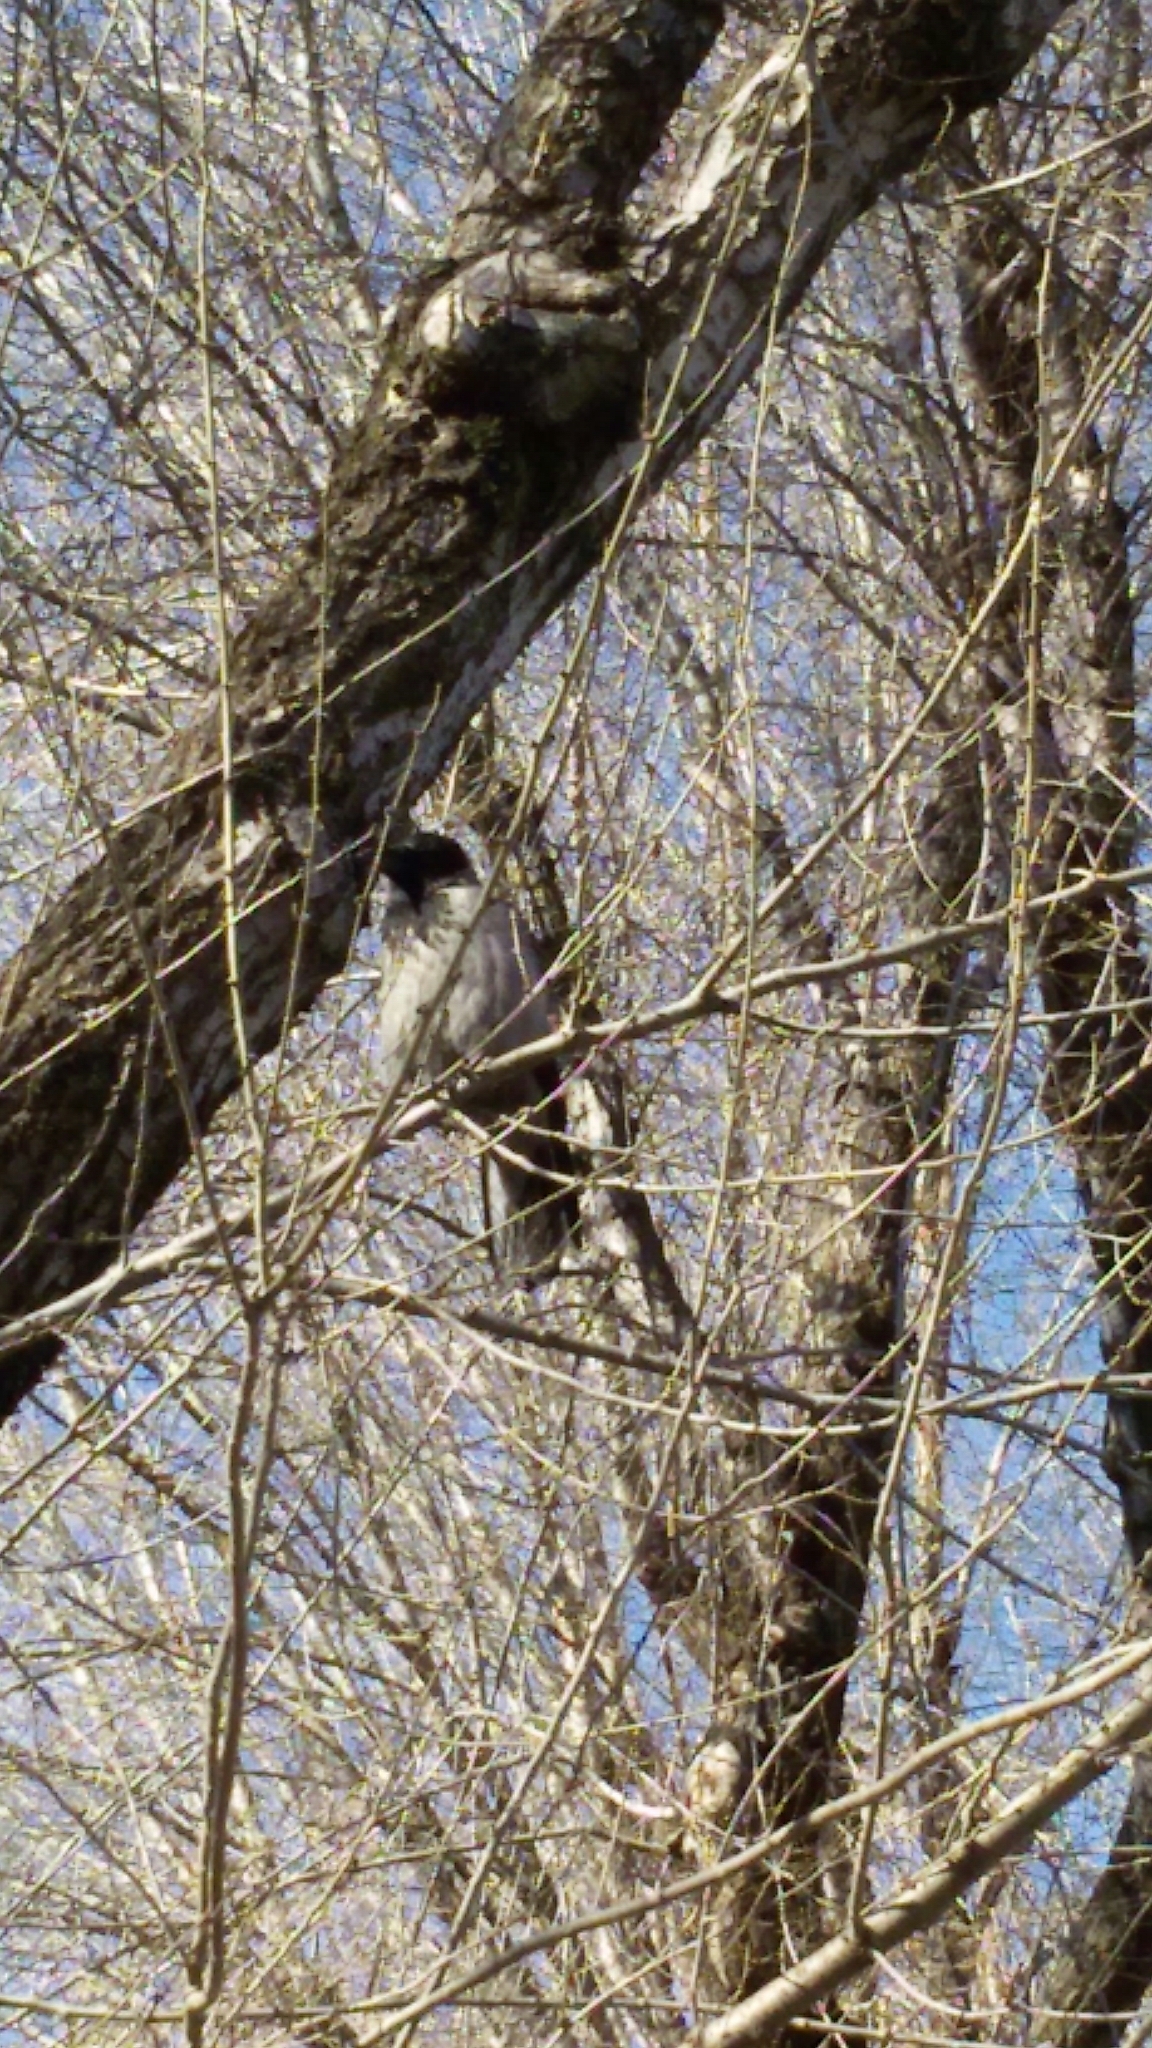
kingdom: Animalia
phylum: Chordata
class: Aves
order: Passeriformes
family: Corvidae
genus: Corvus
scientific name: Corvus cornix
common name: Hooded crow
